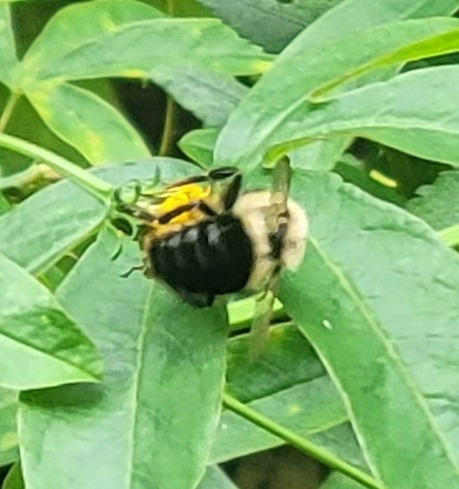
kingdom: Animalia
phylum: Arthropoda
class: Insecta
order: Hymenoptera
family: Apidae
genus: Bombus
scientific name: Bombus impatiens
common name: Common eastern bumble bee
